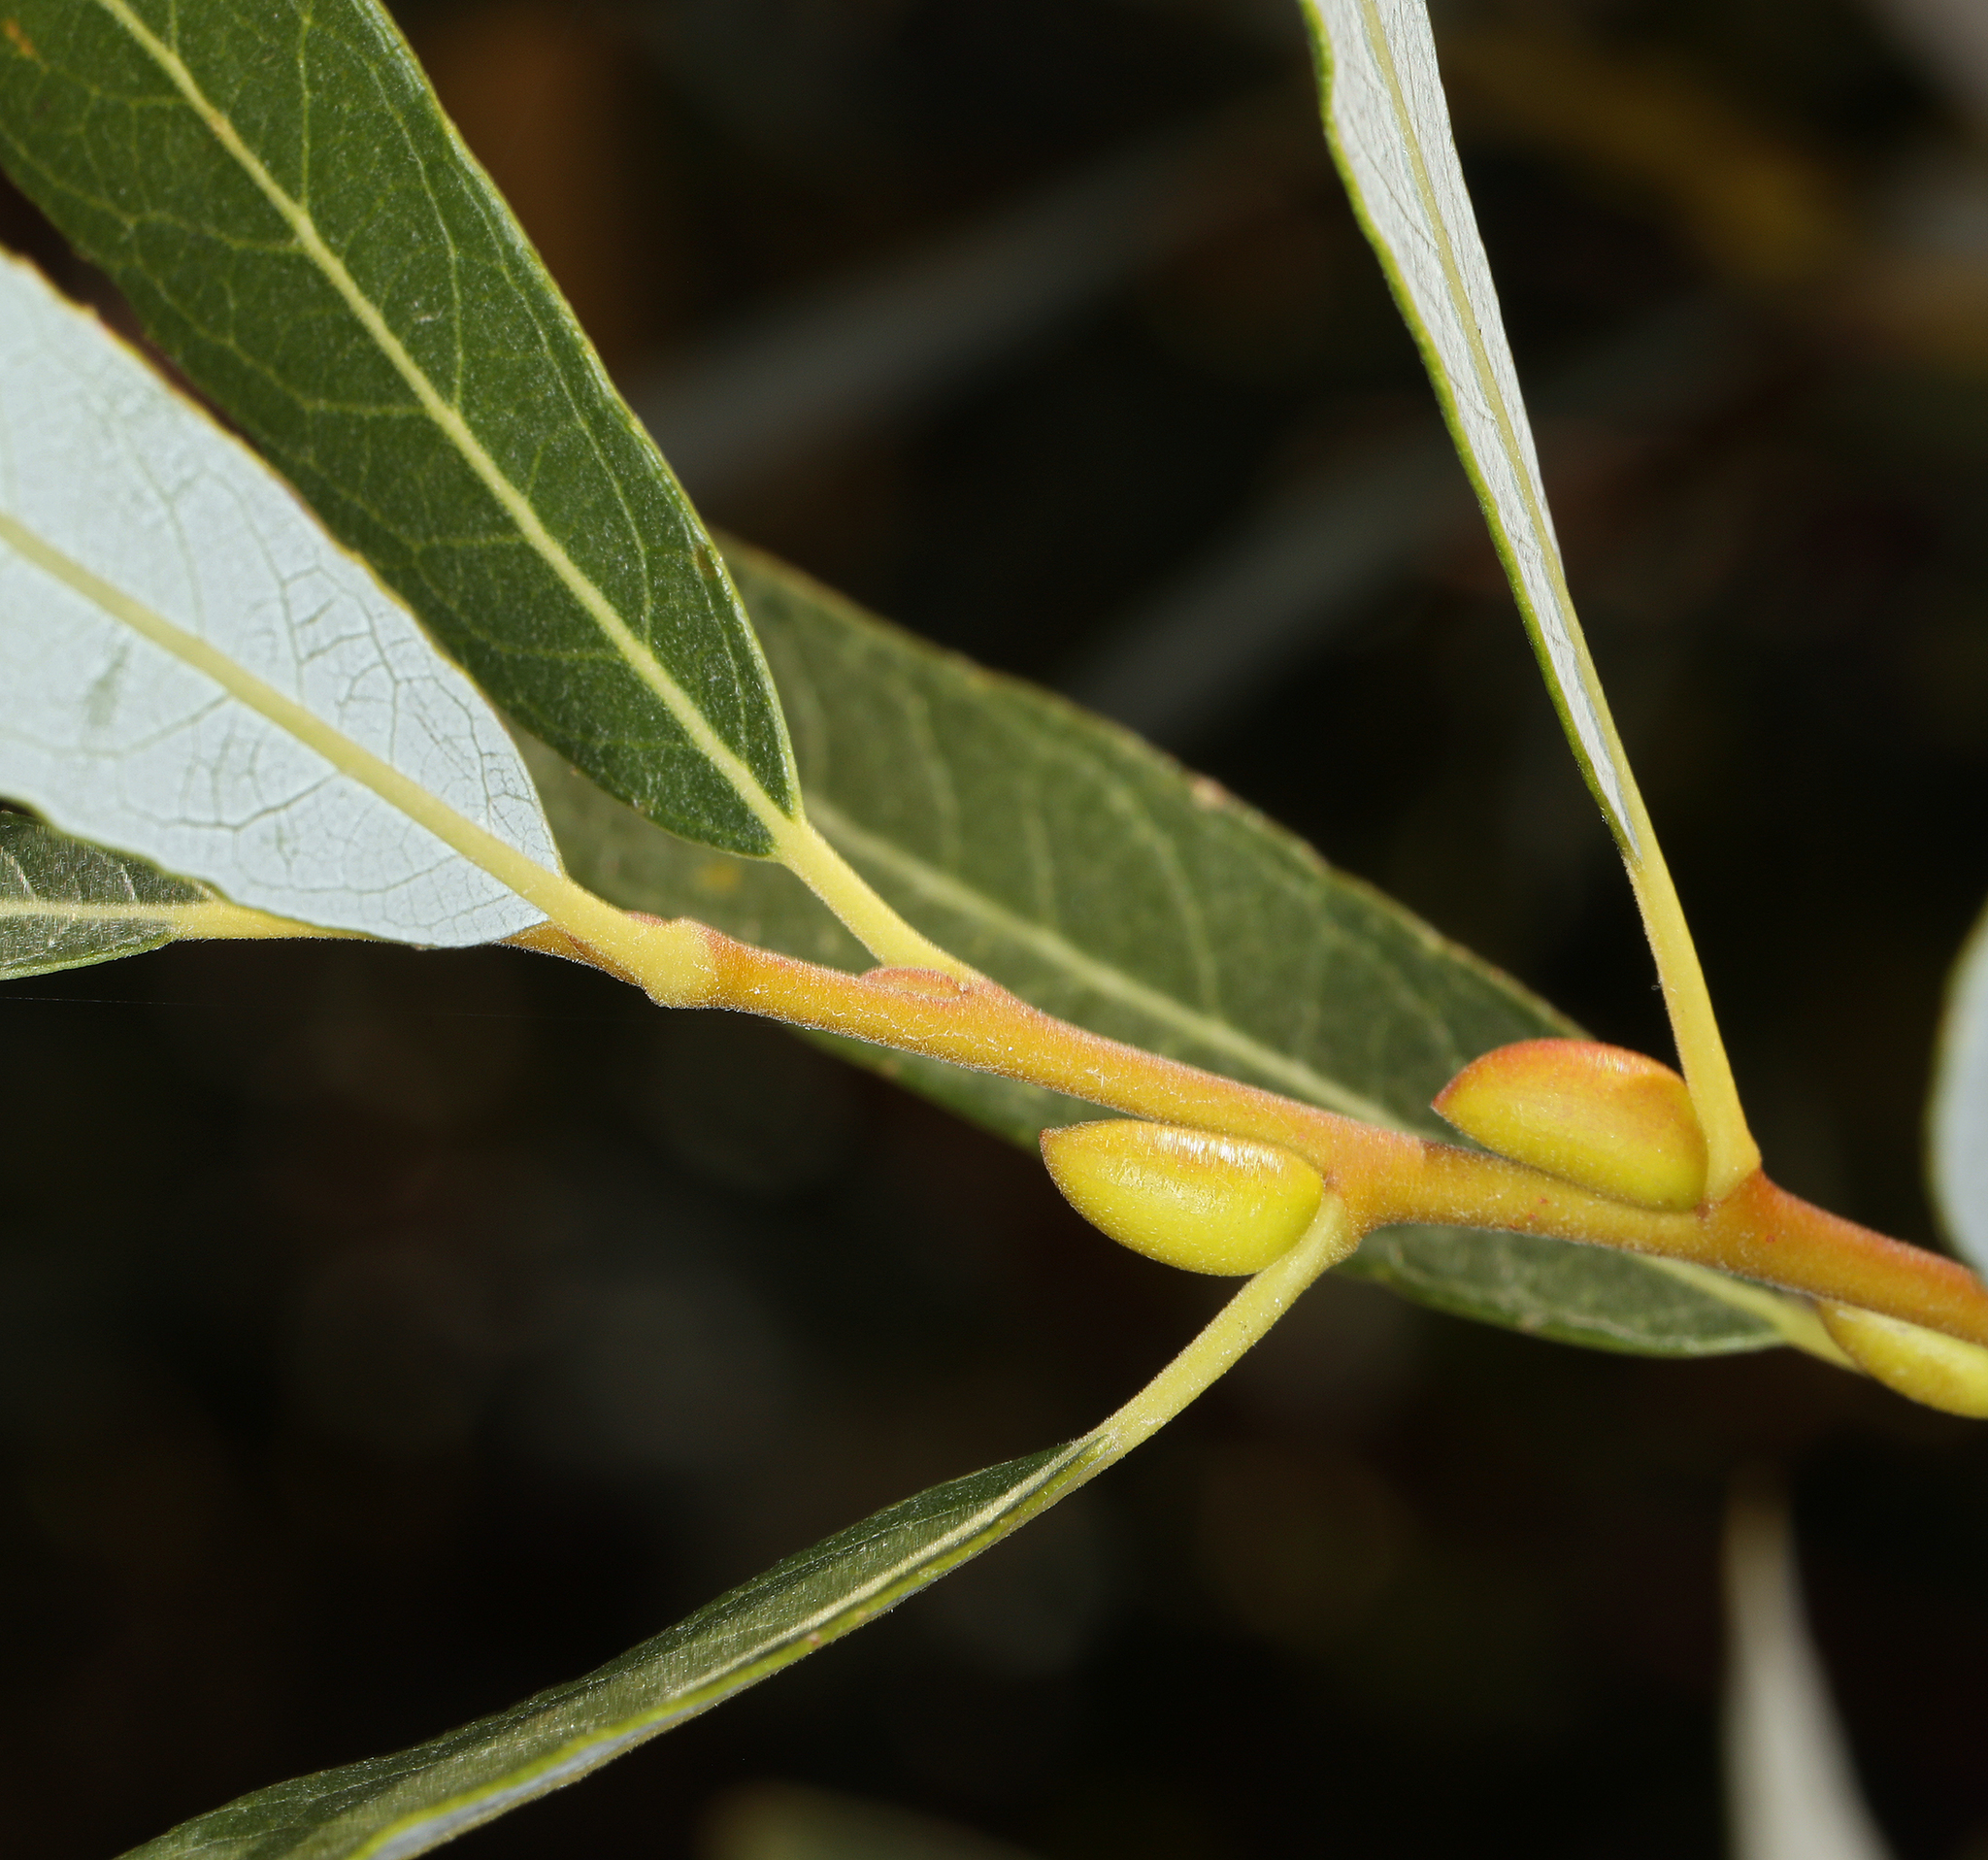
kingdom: Plantae
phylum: Tracheophyta
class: Magnoliopsida
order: Malpighiales
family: Salicaceae
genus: Salix
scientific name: Salix lasiolepis
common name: Arroyo willow
